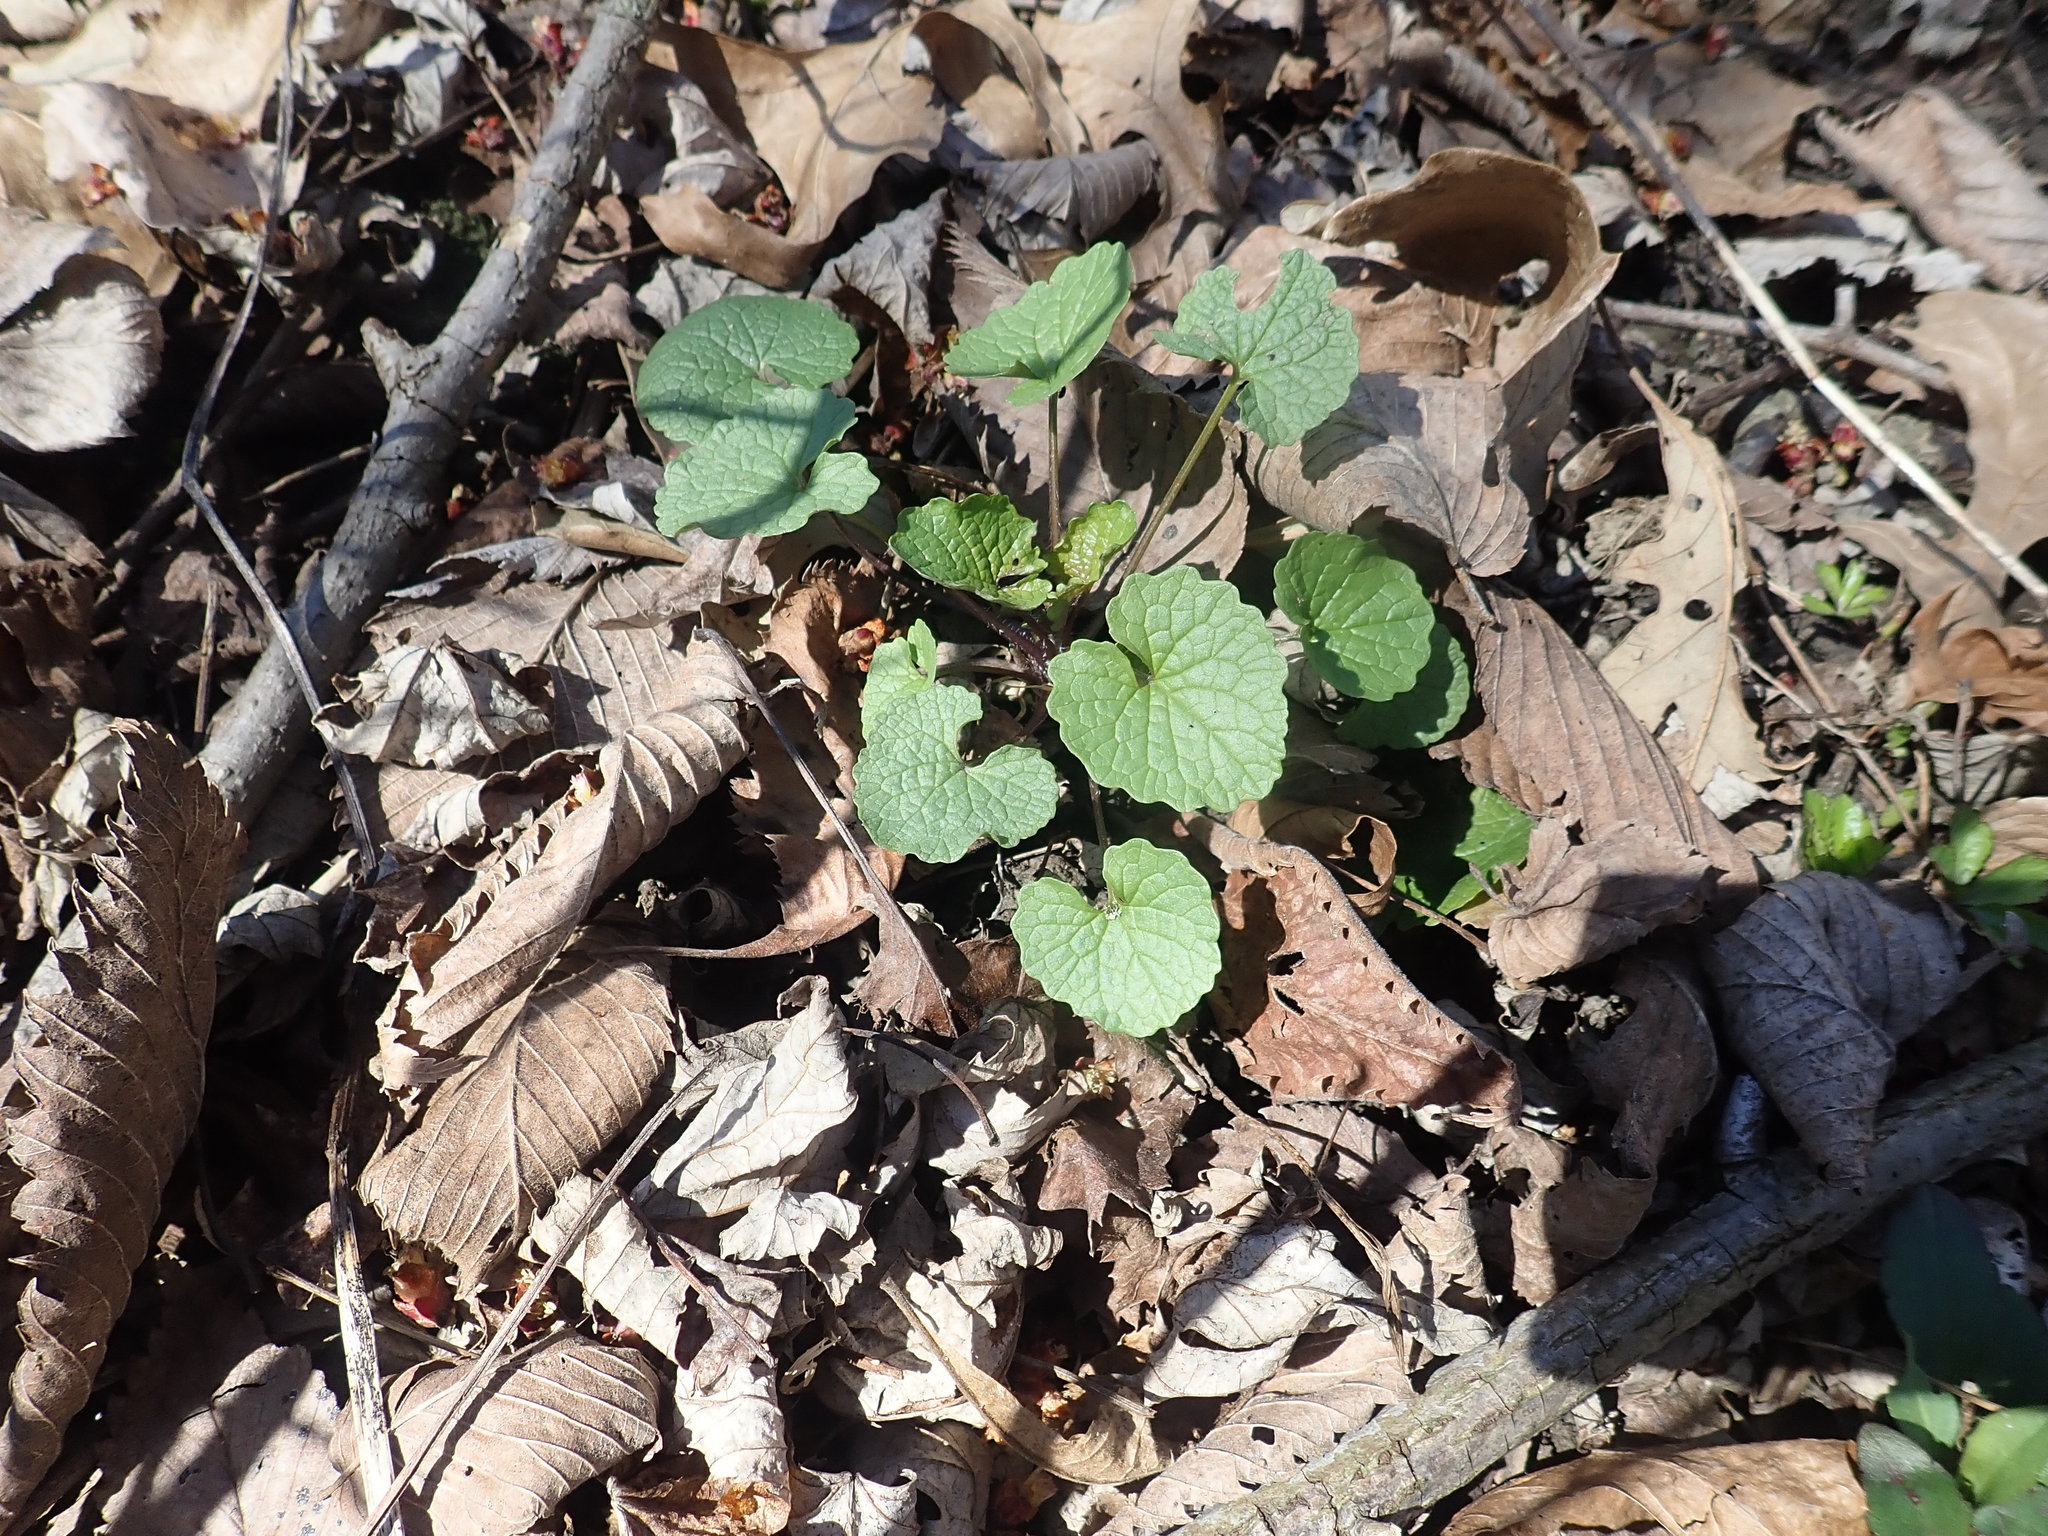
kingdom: Plantae
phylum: Tracheophyta
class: Magnoliopsida
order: Brassicales
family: Brassicaceae
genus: Alliaria
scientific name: Alliaria petiolata
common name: Garlic mustard
